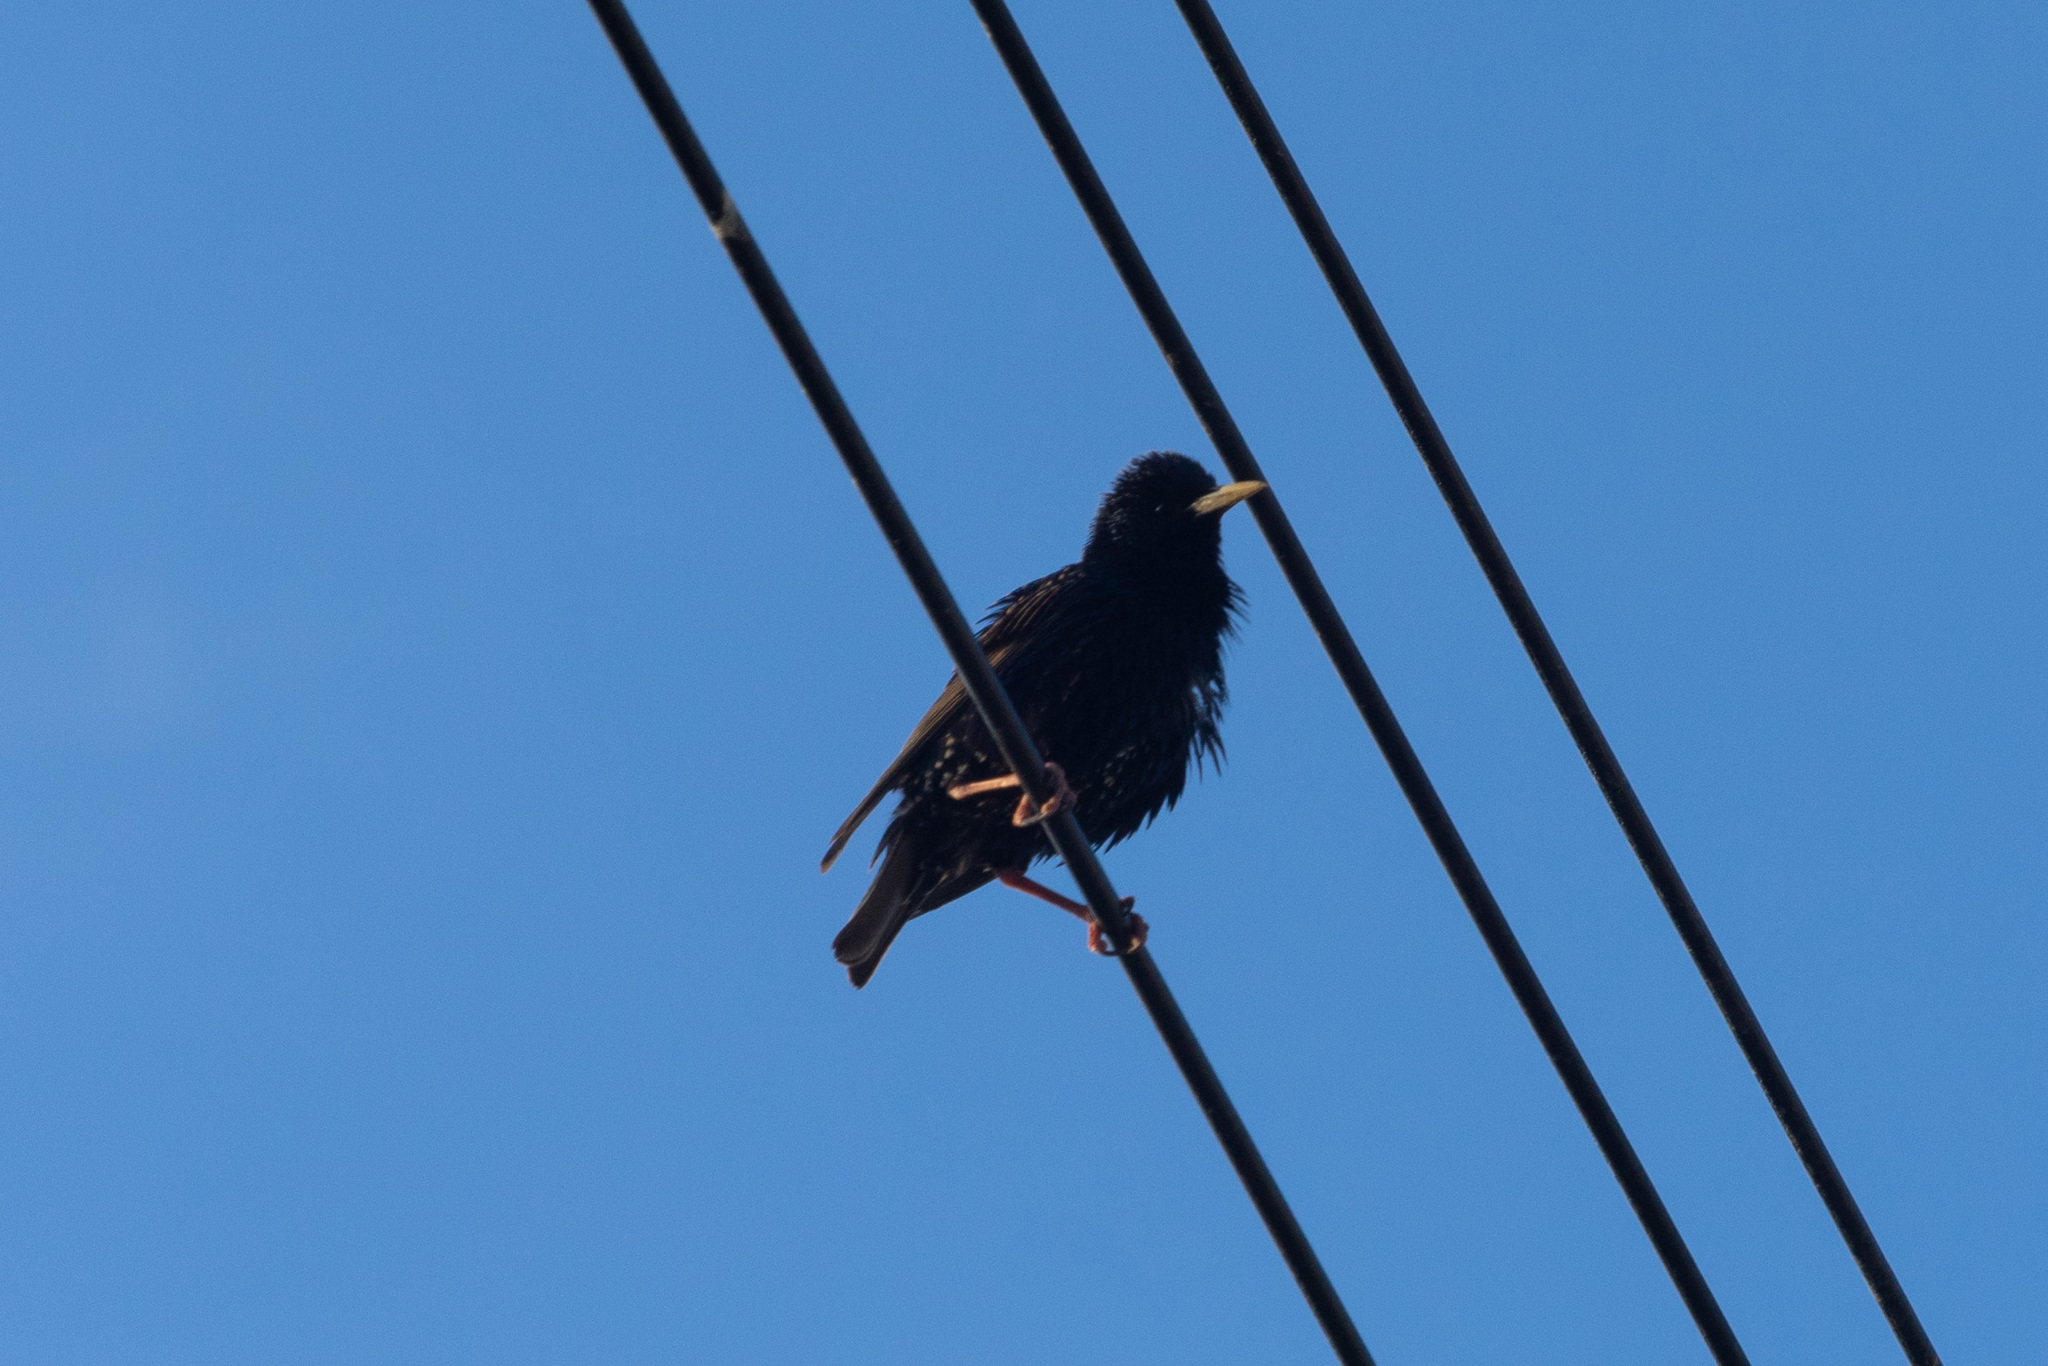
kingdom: Animalia
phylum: Chordata
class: Aves
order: Passeriformes
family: Sturnidae
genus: Sturnus
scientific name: Sturnus vulgaris
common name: Common starling
